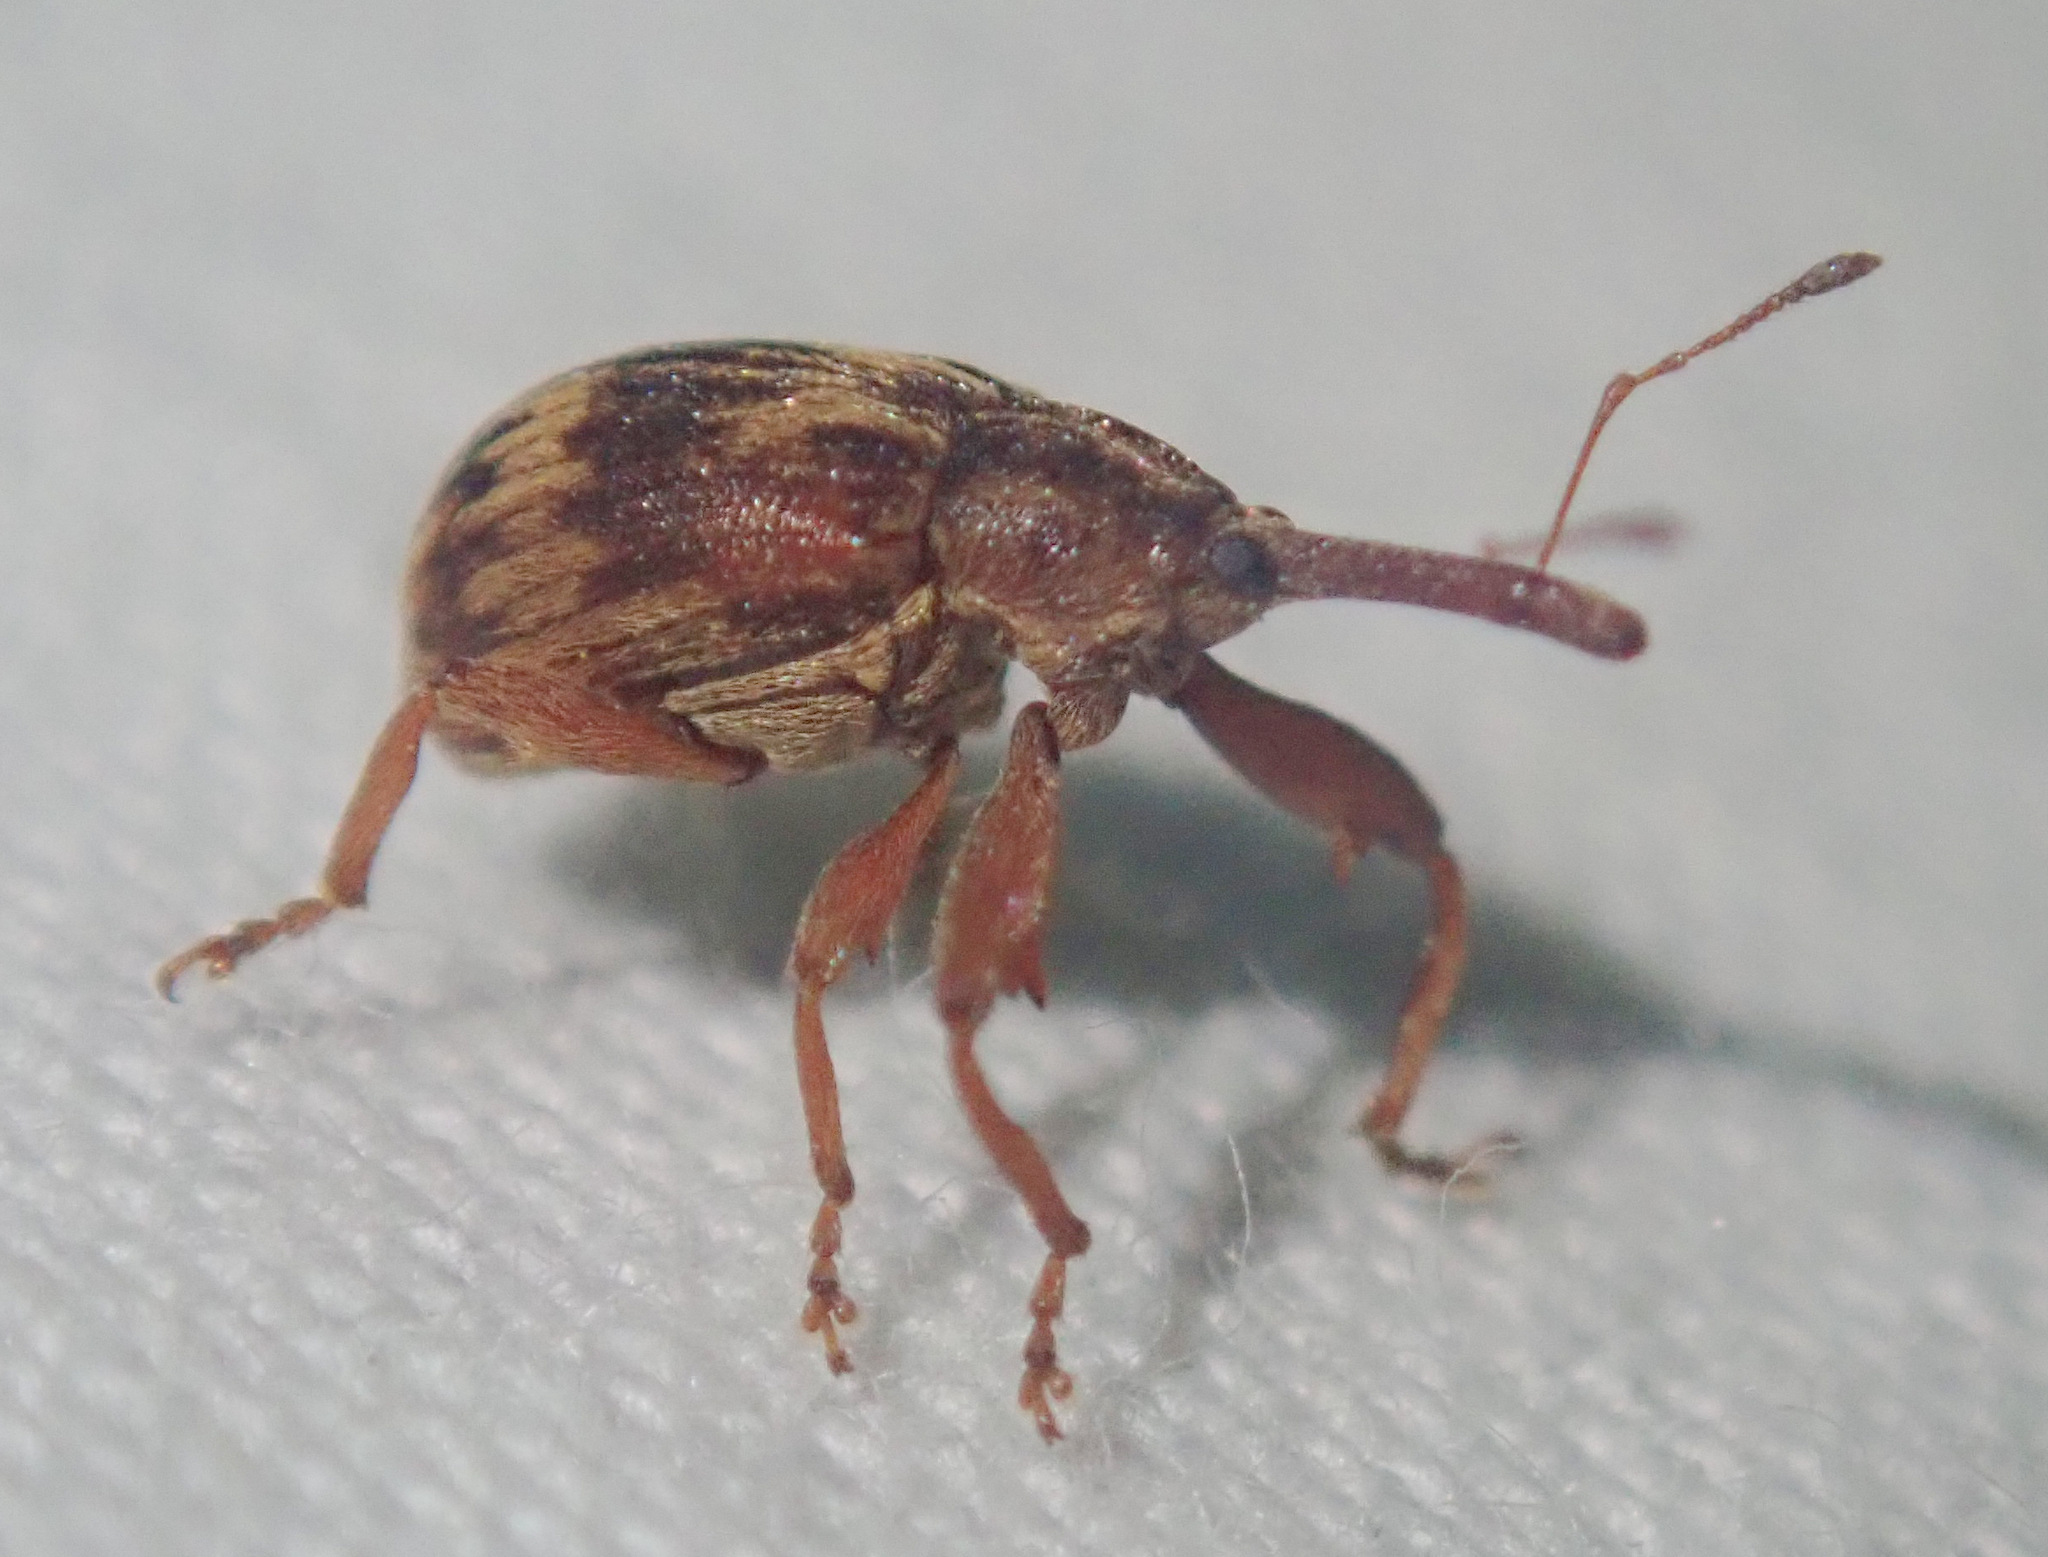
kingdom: Animalia
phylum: Arthropoda
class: Insecta
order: Coleoptera
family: Curculionidae
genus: Anthonomus
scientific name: Anthonomus rectirostris
